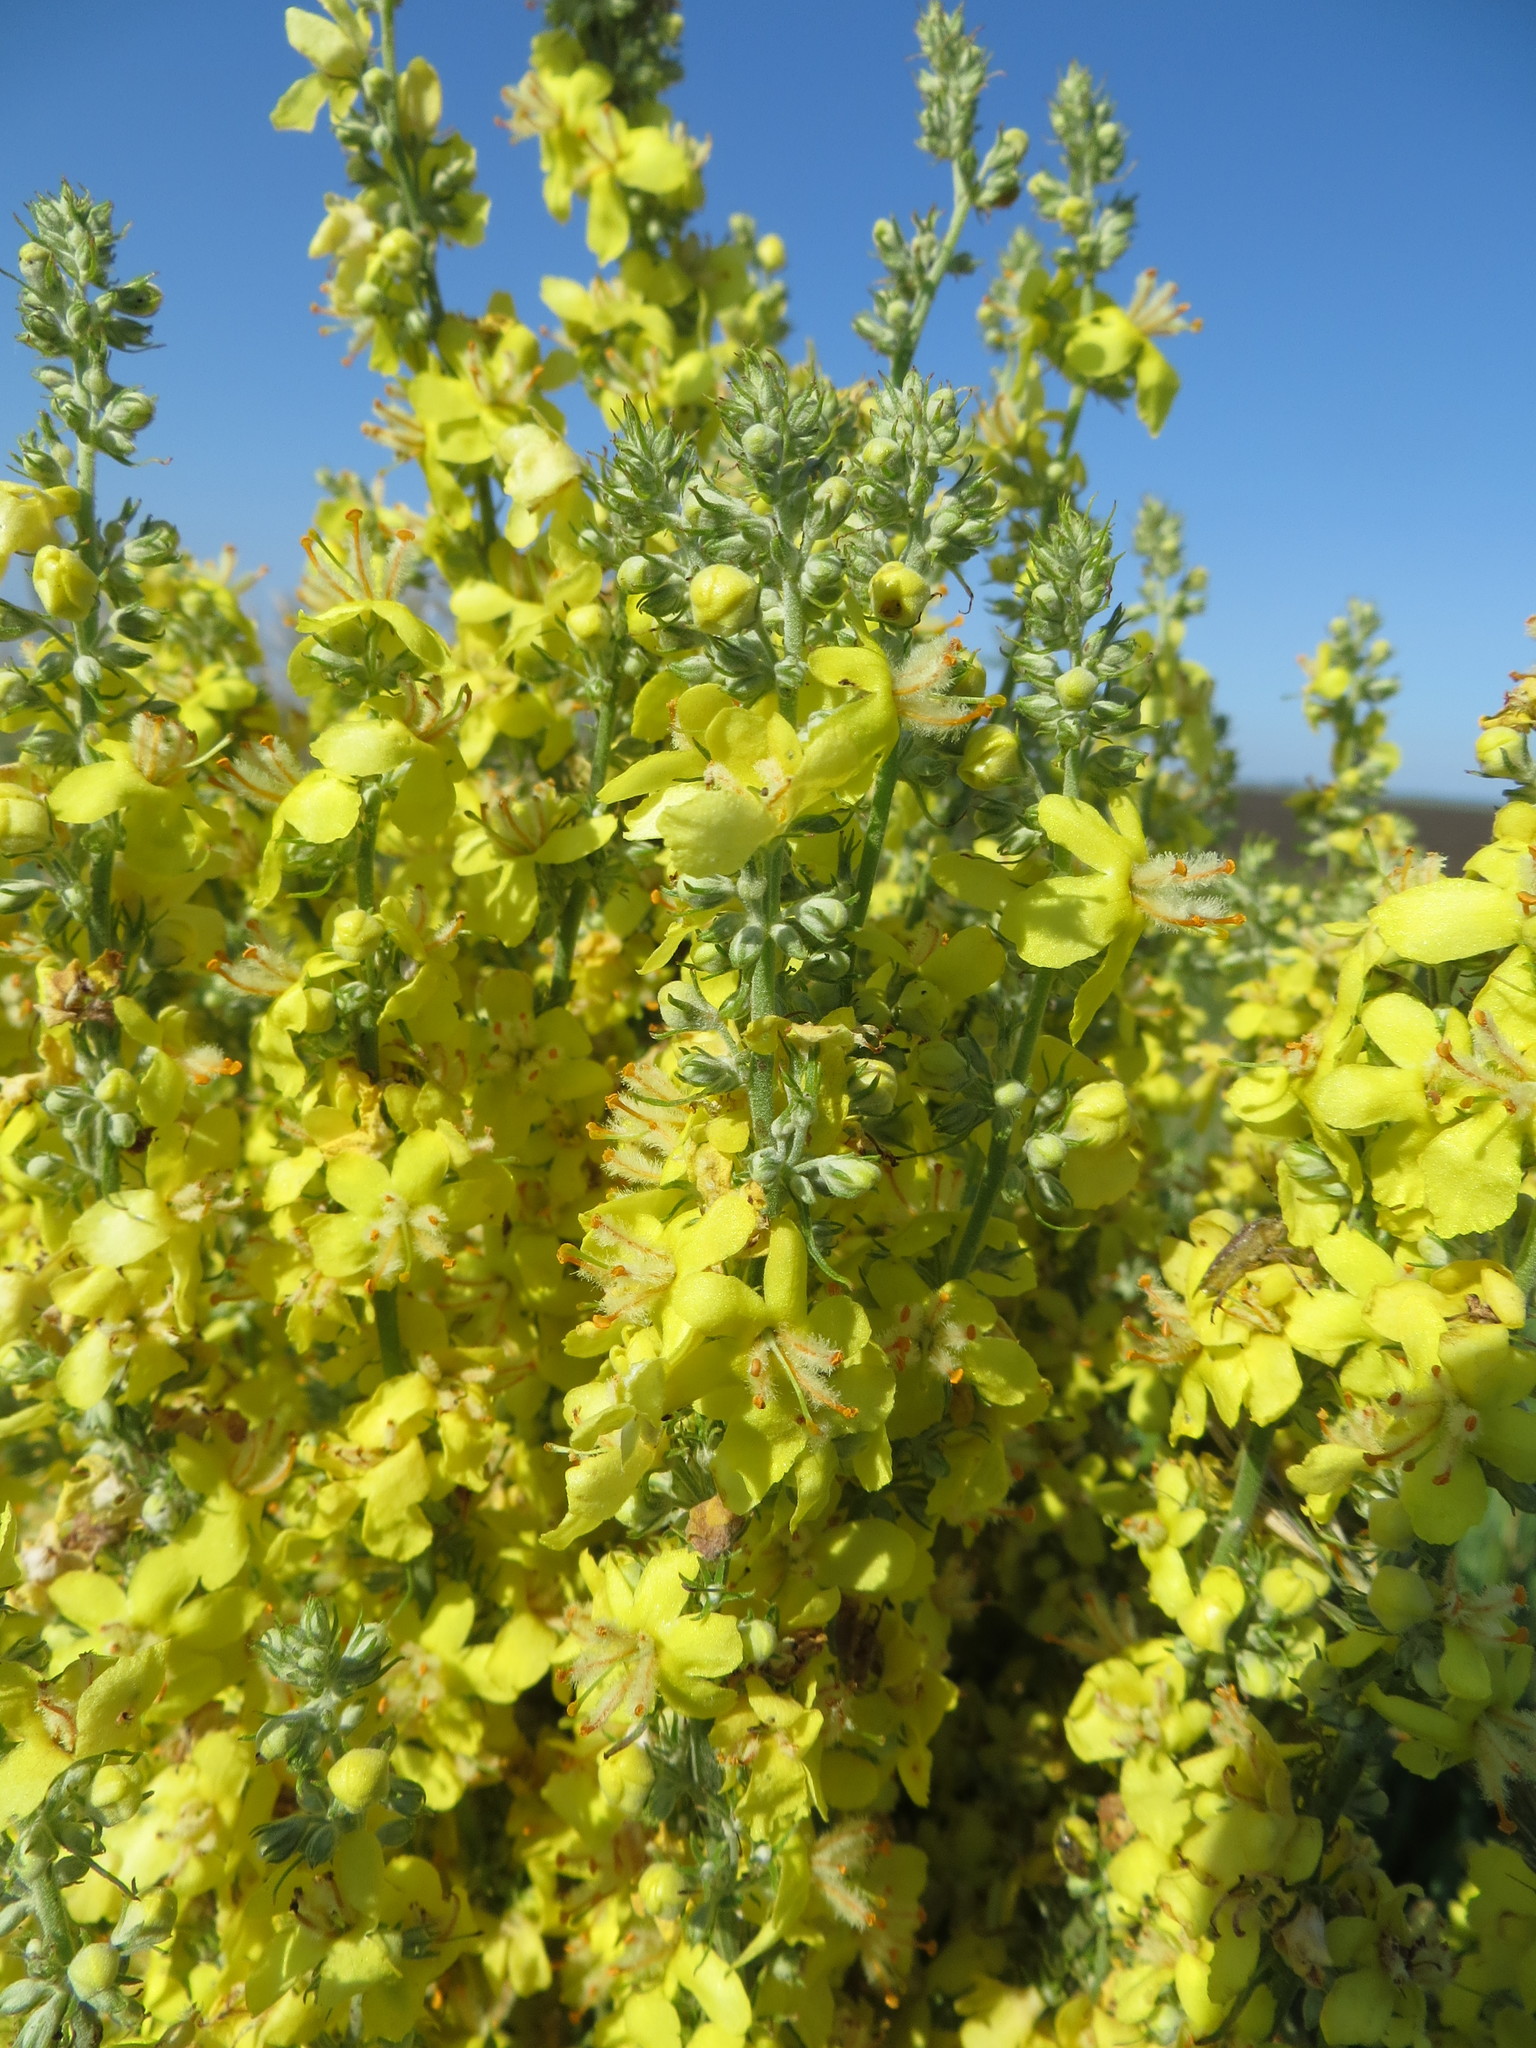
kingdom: Plantae
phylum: Tracheophyta
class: Magnoliopsida
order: Lamiales
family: Scrophulariaceae
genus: Verbascum
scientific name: Verbascum lychnitis
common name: White mullein
